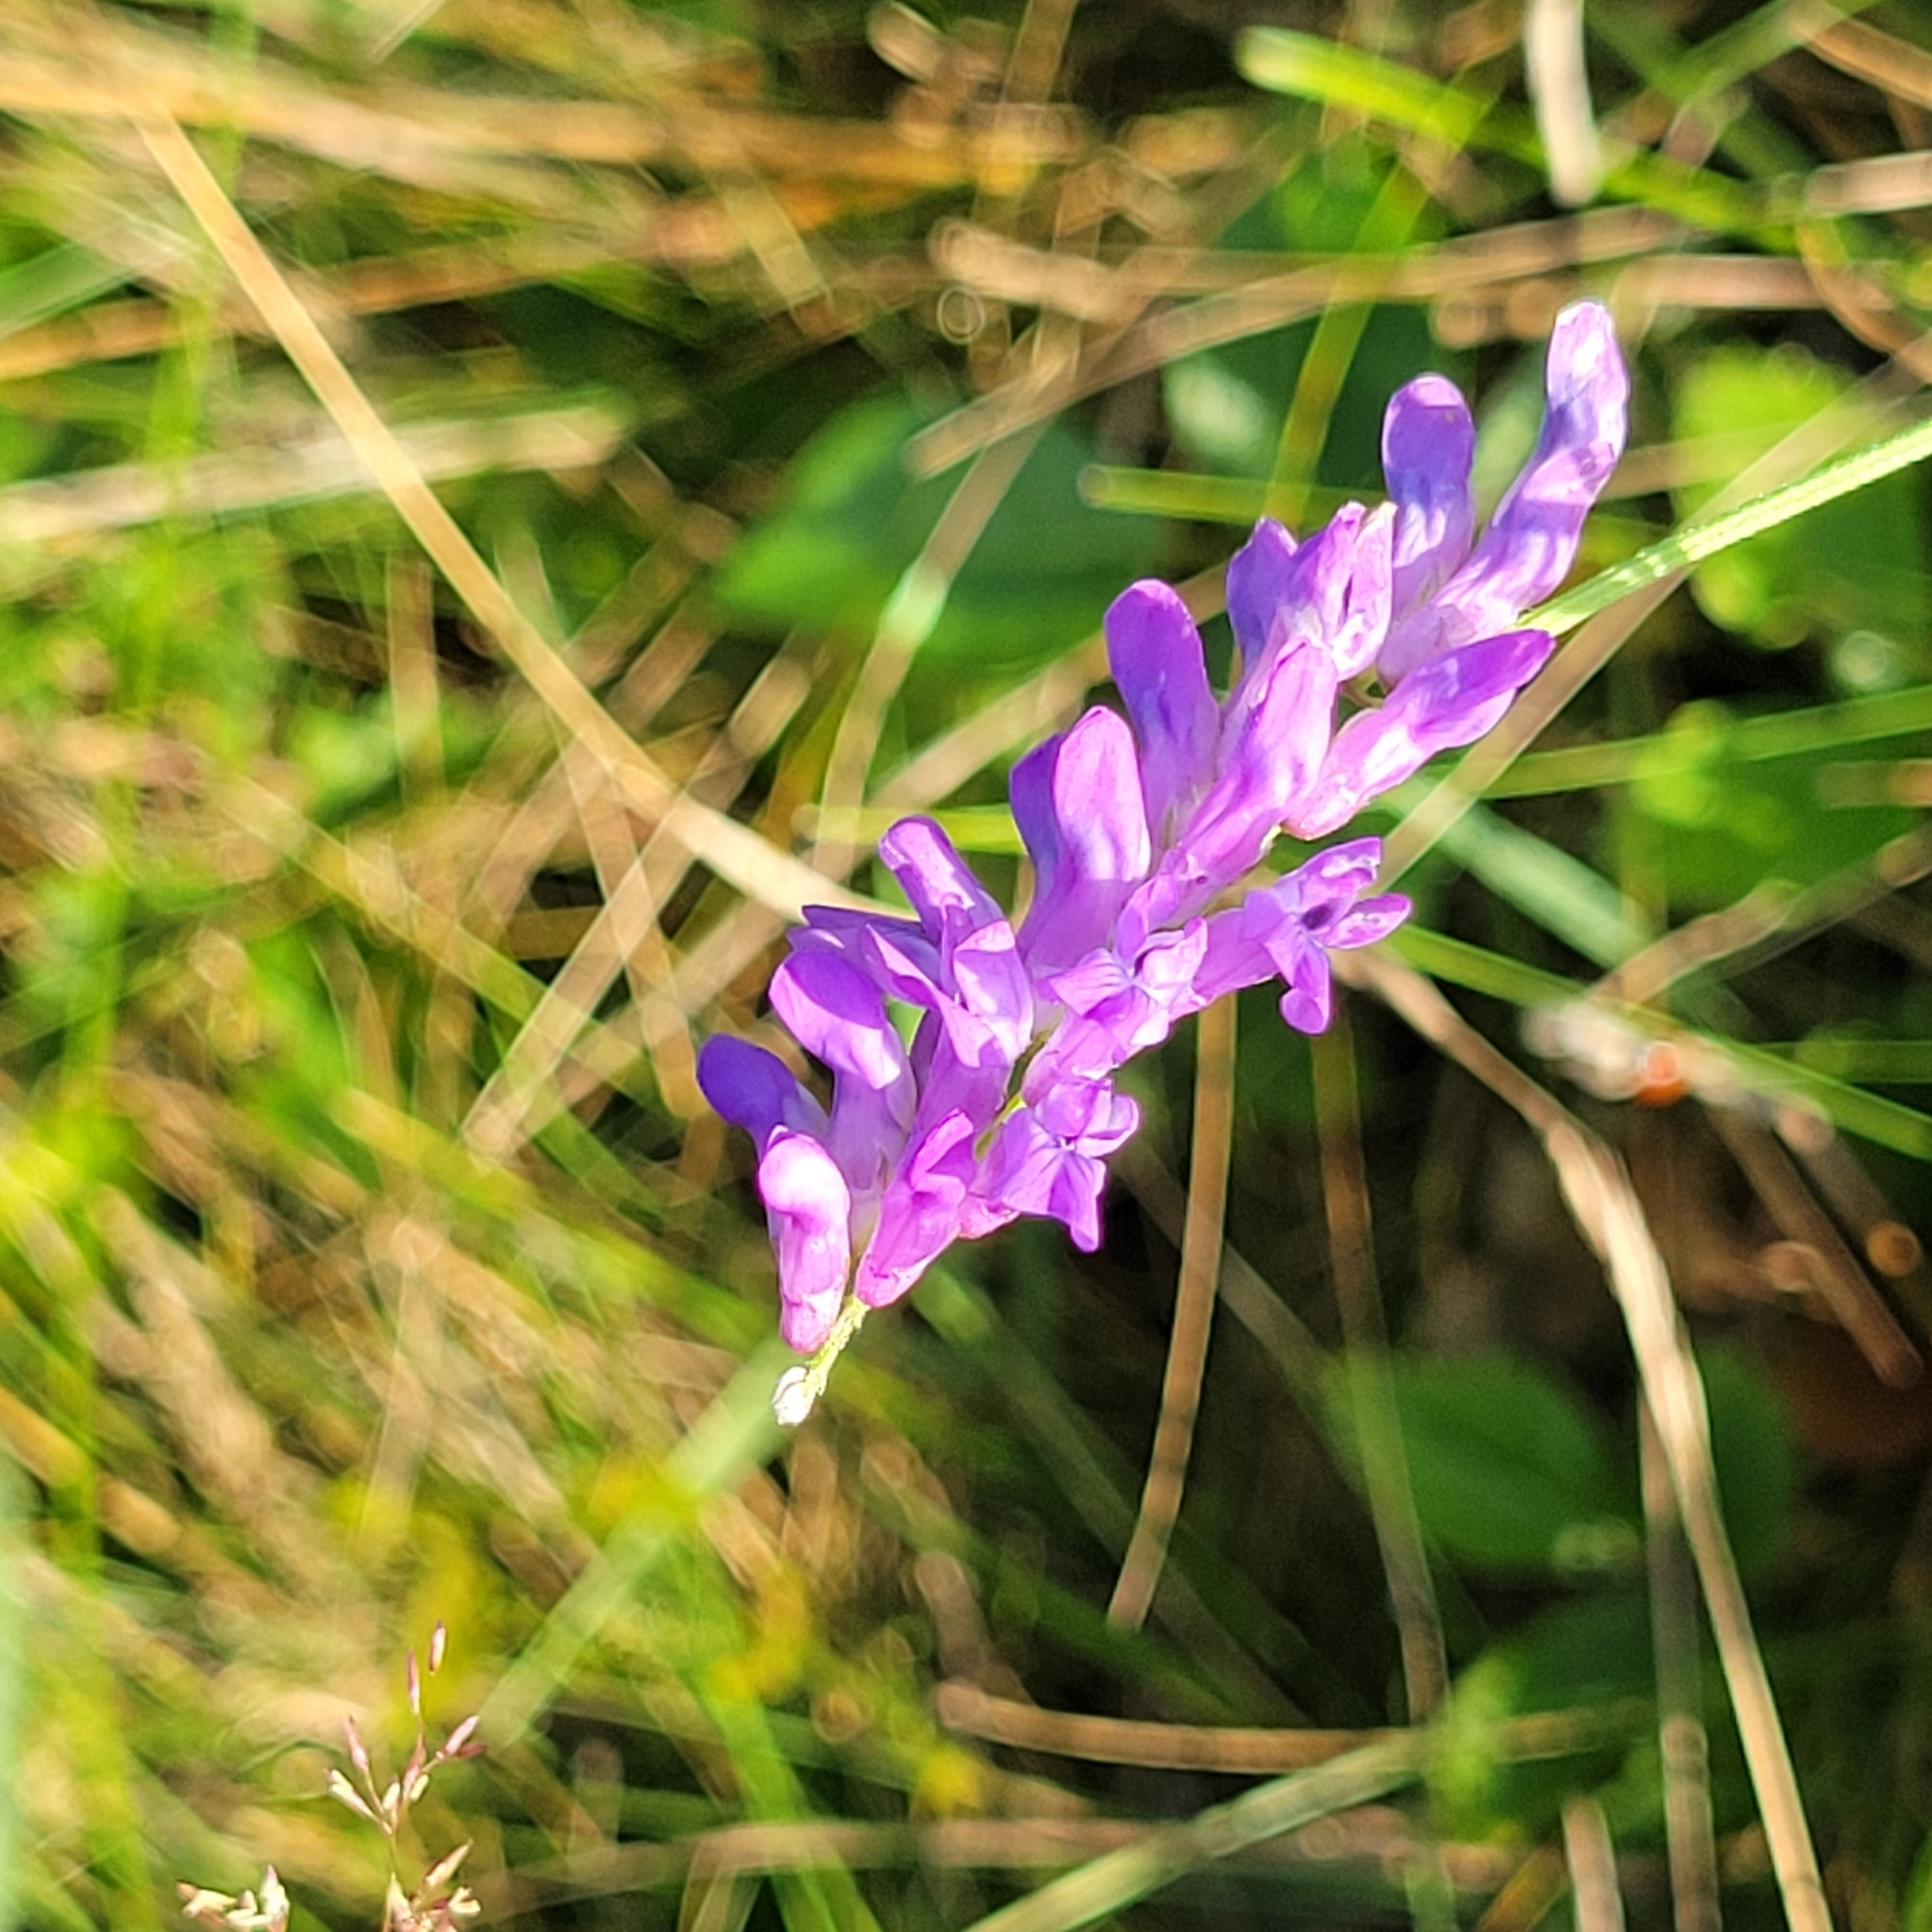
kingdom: Plantae
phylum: Tracheophyta
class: Magnoliopsida
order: Fabales
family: Fabaceae
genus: Vicia
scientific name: Vicia cracca
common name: Bird vetch
